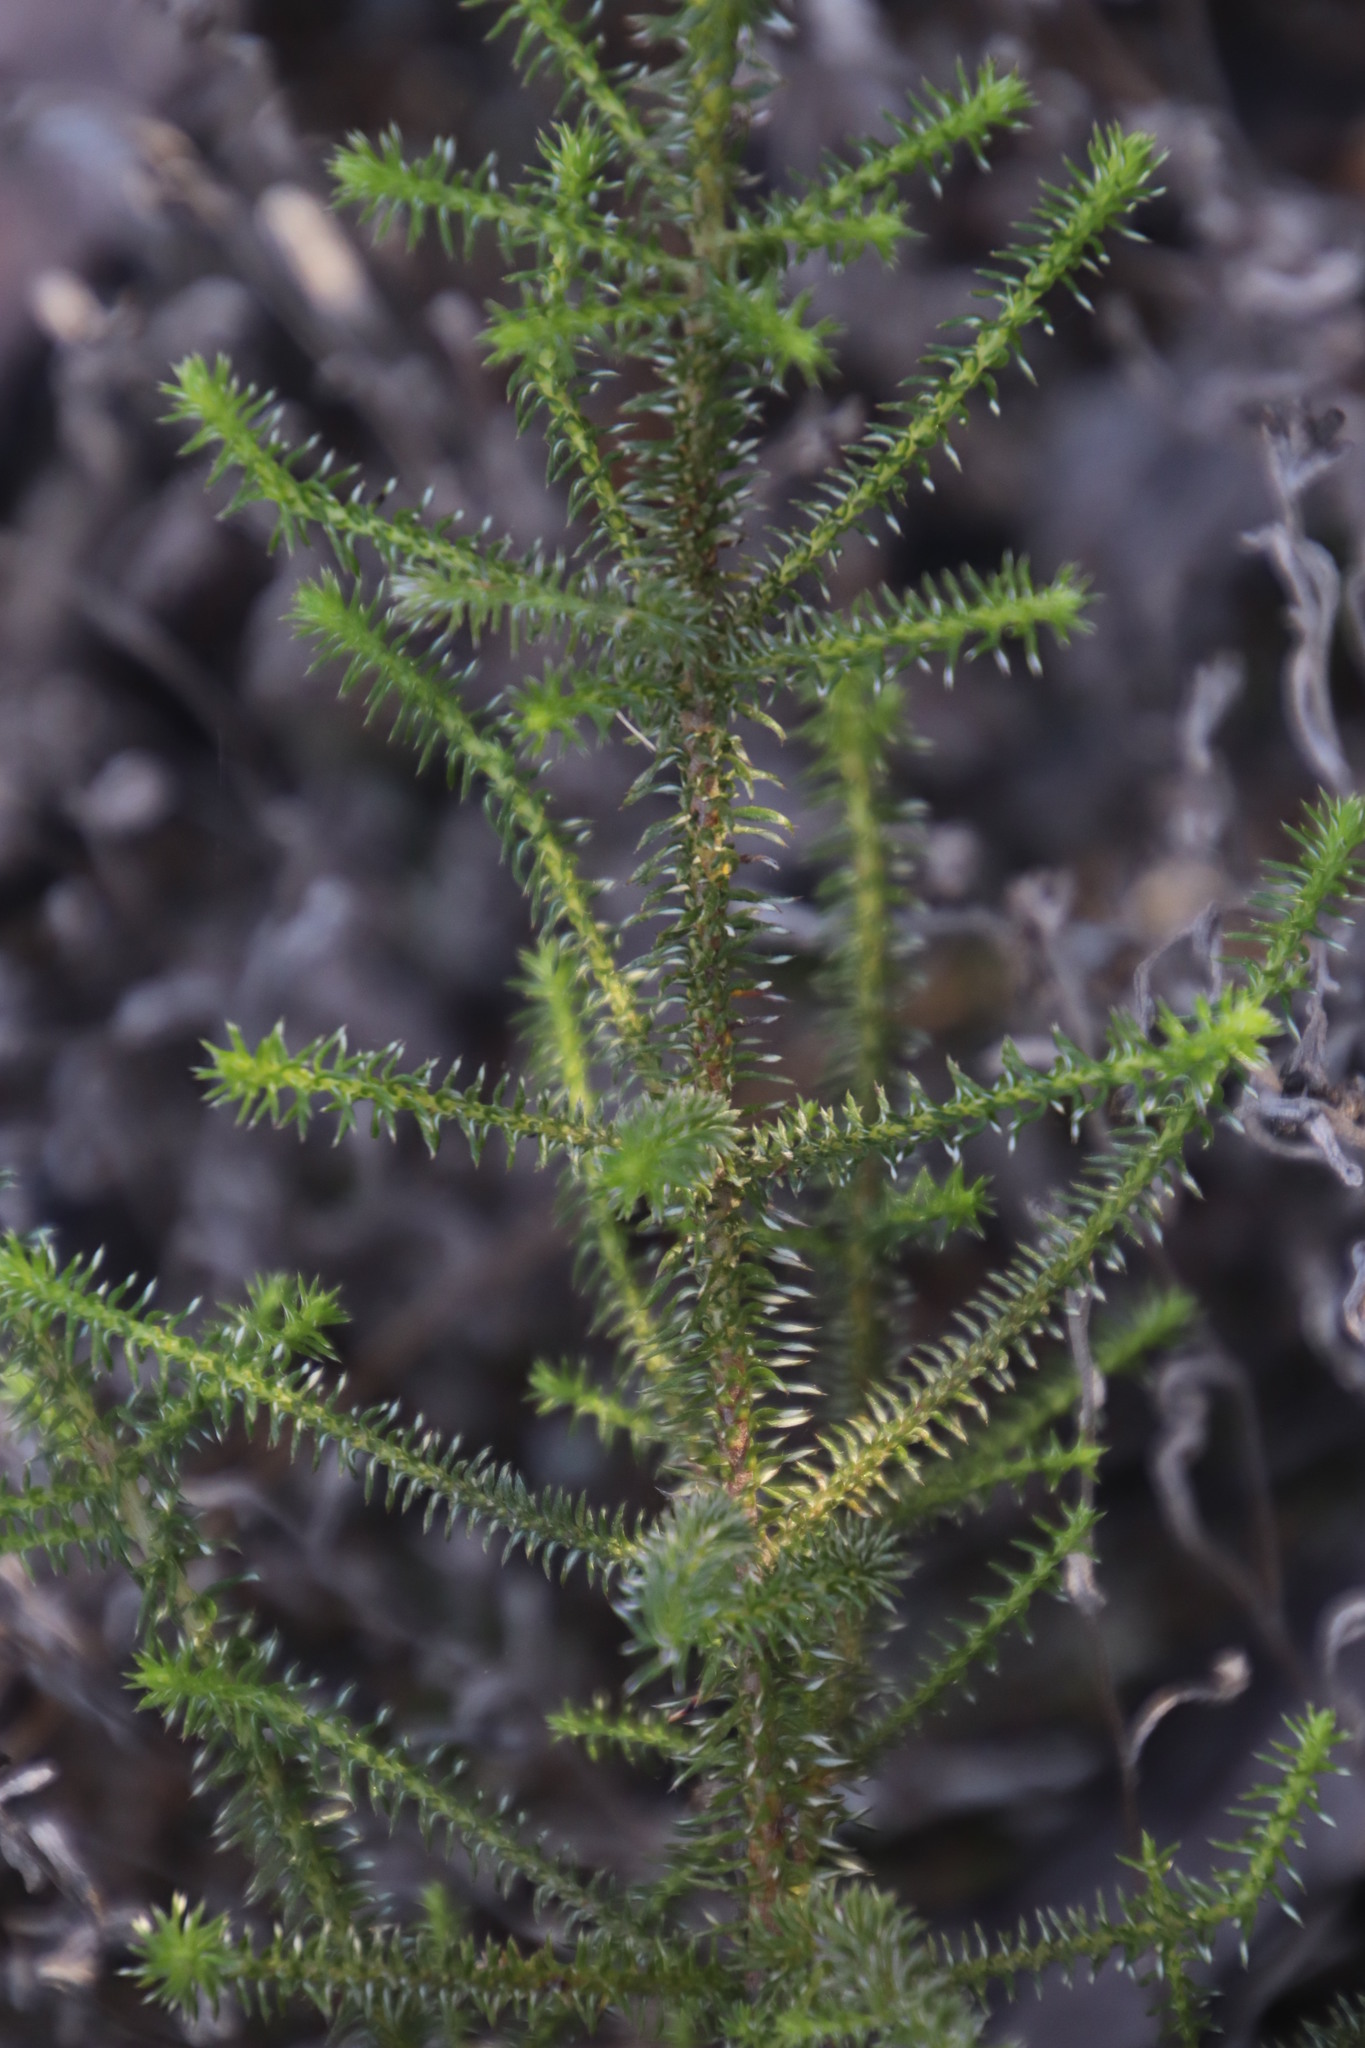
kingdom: Plantae
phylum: Tracheophyta
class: Magnoliopsida
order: Asterales
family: Asteraceae
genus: Seriphium
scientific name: Seriphium cinereum
